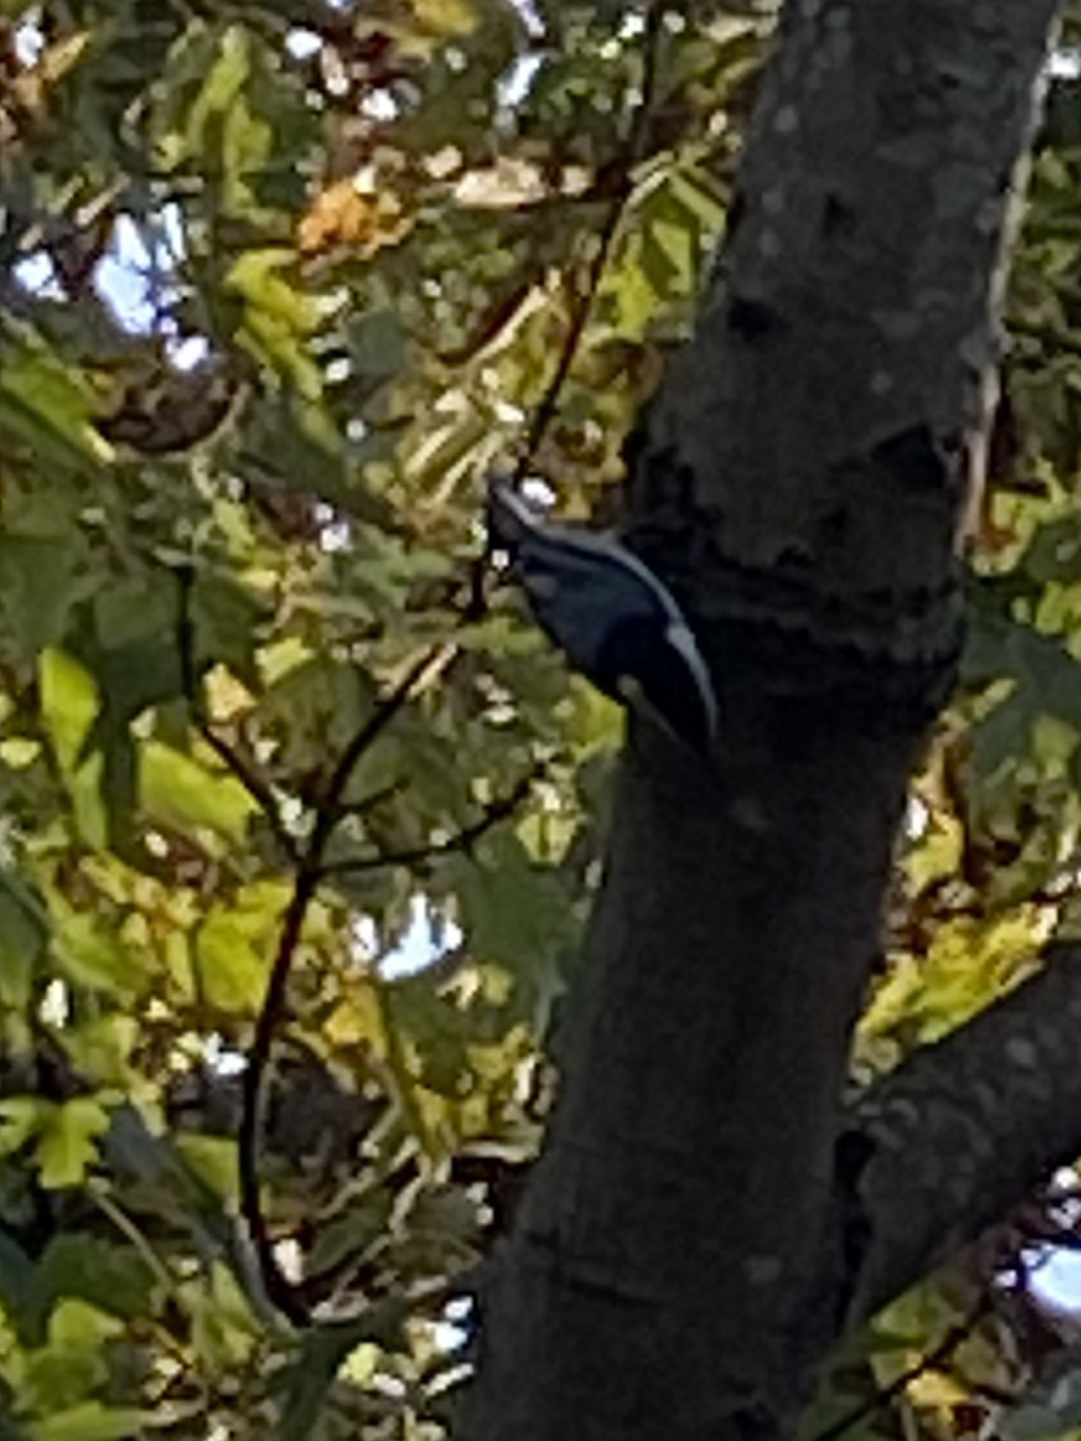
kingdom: Animalia
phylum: Chordata
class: Aves
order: Passeriformes
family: Sittidae
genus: Sitta
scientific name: Sitta carolinensis
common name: White-breasted nuthatch
